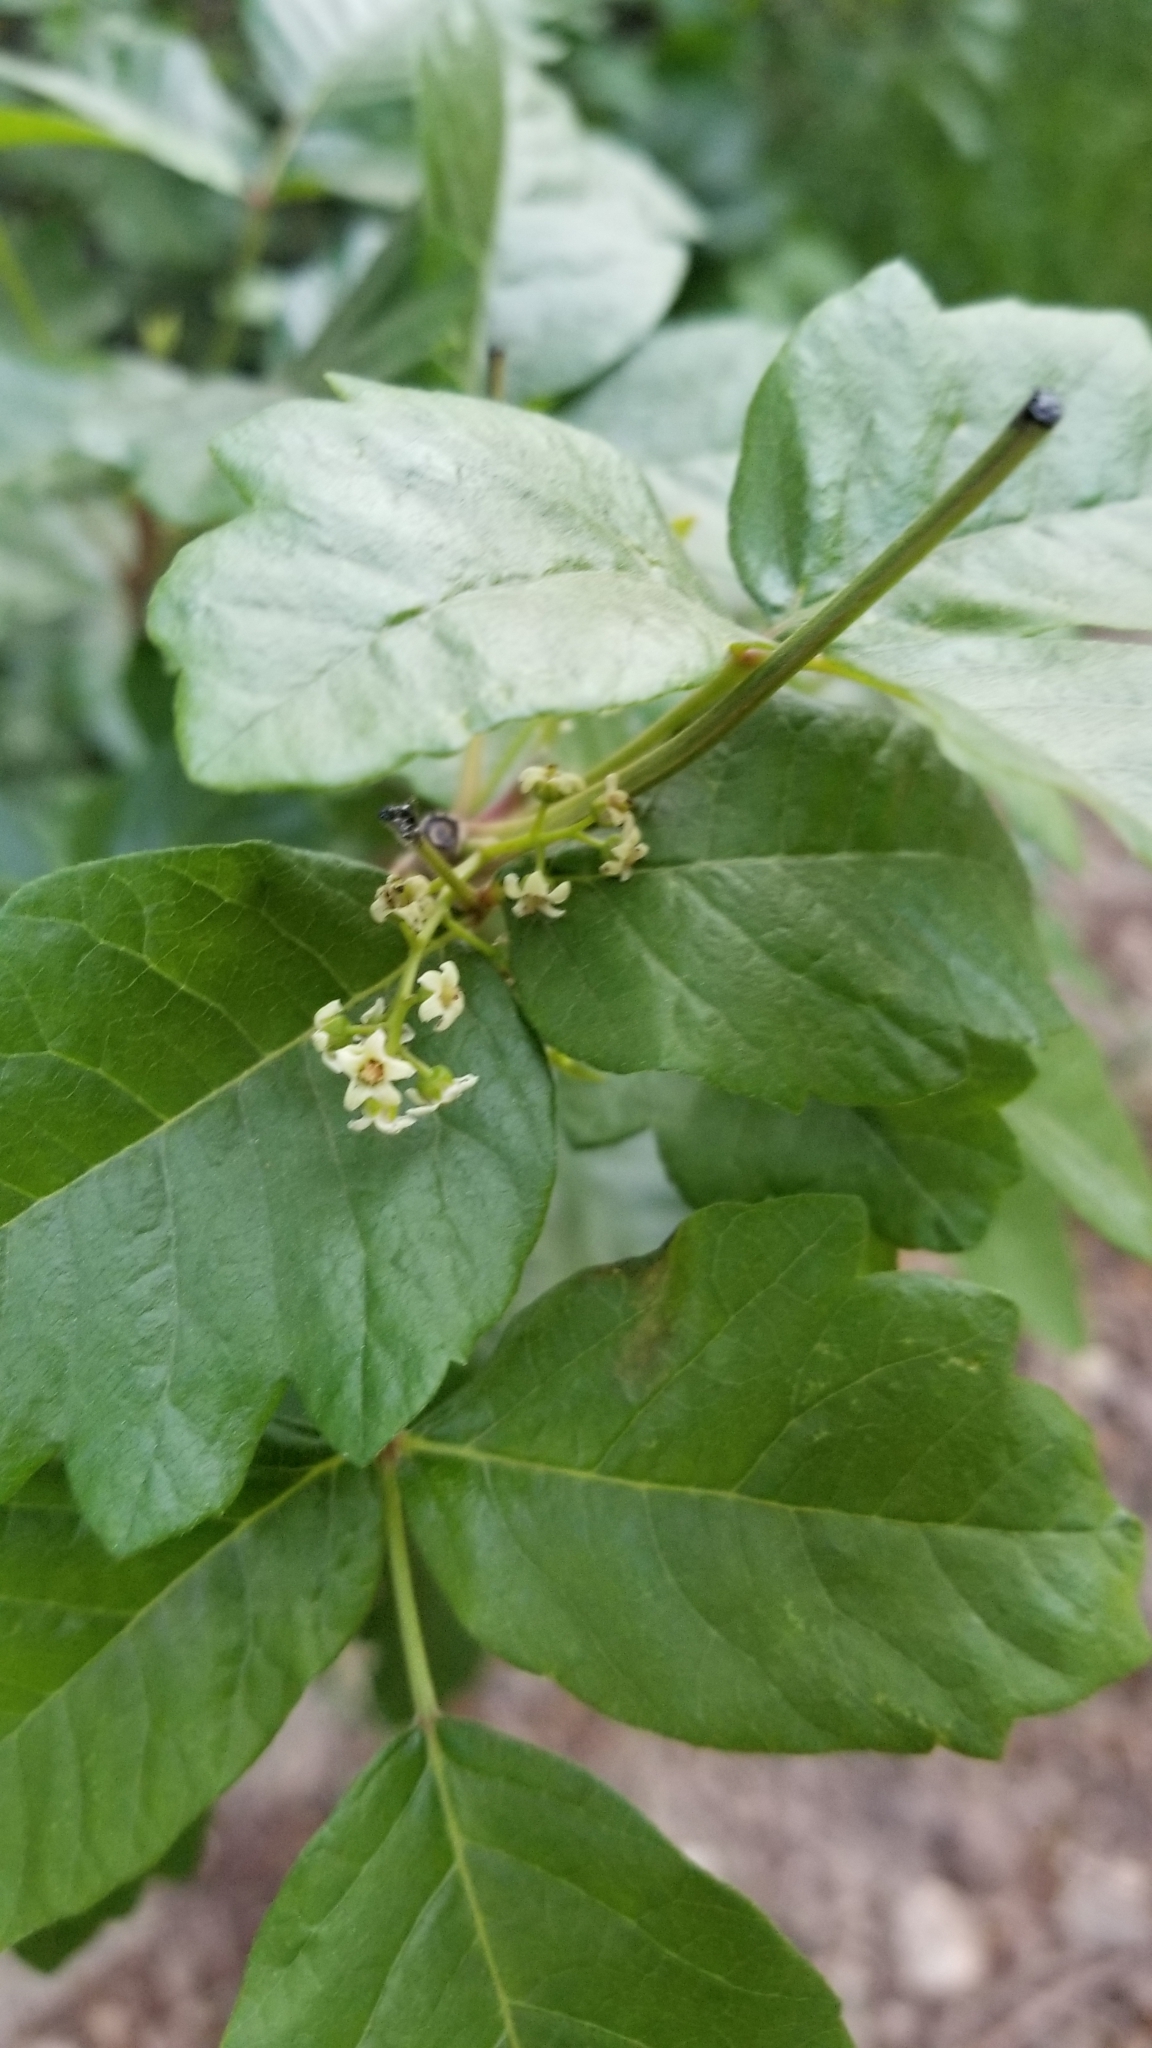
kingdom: Plantae
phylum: Tracheophyta
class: Magnoliopsida
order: Sapindales
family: Anacardiaceae
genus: Toxicodendron
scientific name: Toxicodendron diversilobum
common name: Pacific poison-oak
